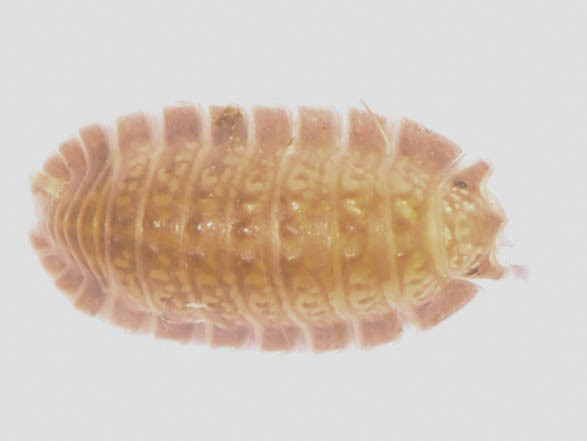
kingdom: Animalia
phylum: Arthropoda
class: Malacostraca
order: Isopoda
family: Detonidae
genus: Armadilloniscus
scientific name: Armadilloniscus holmesi
